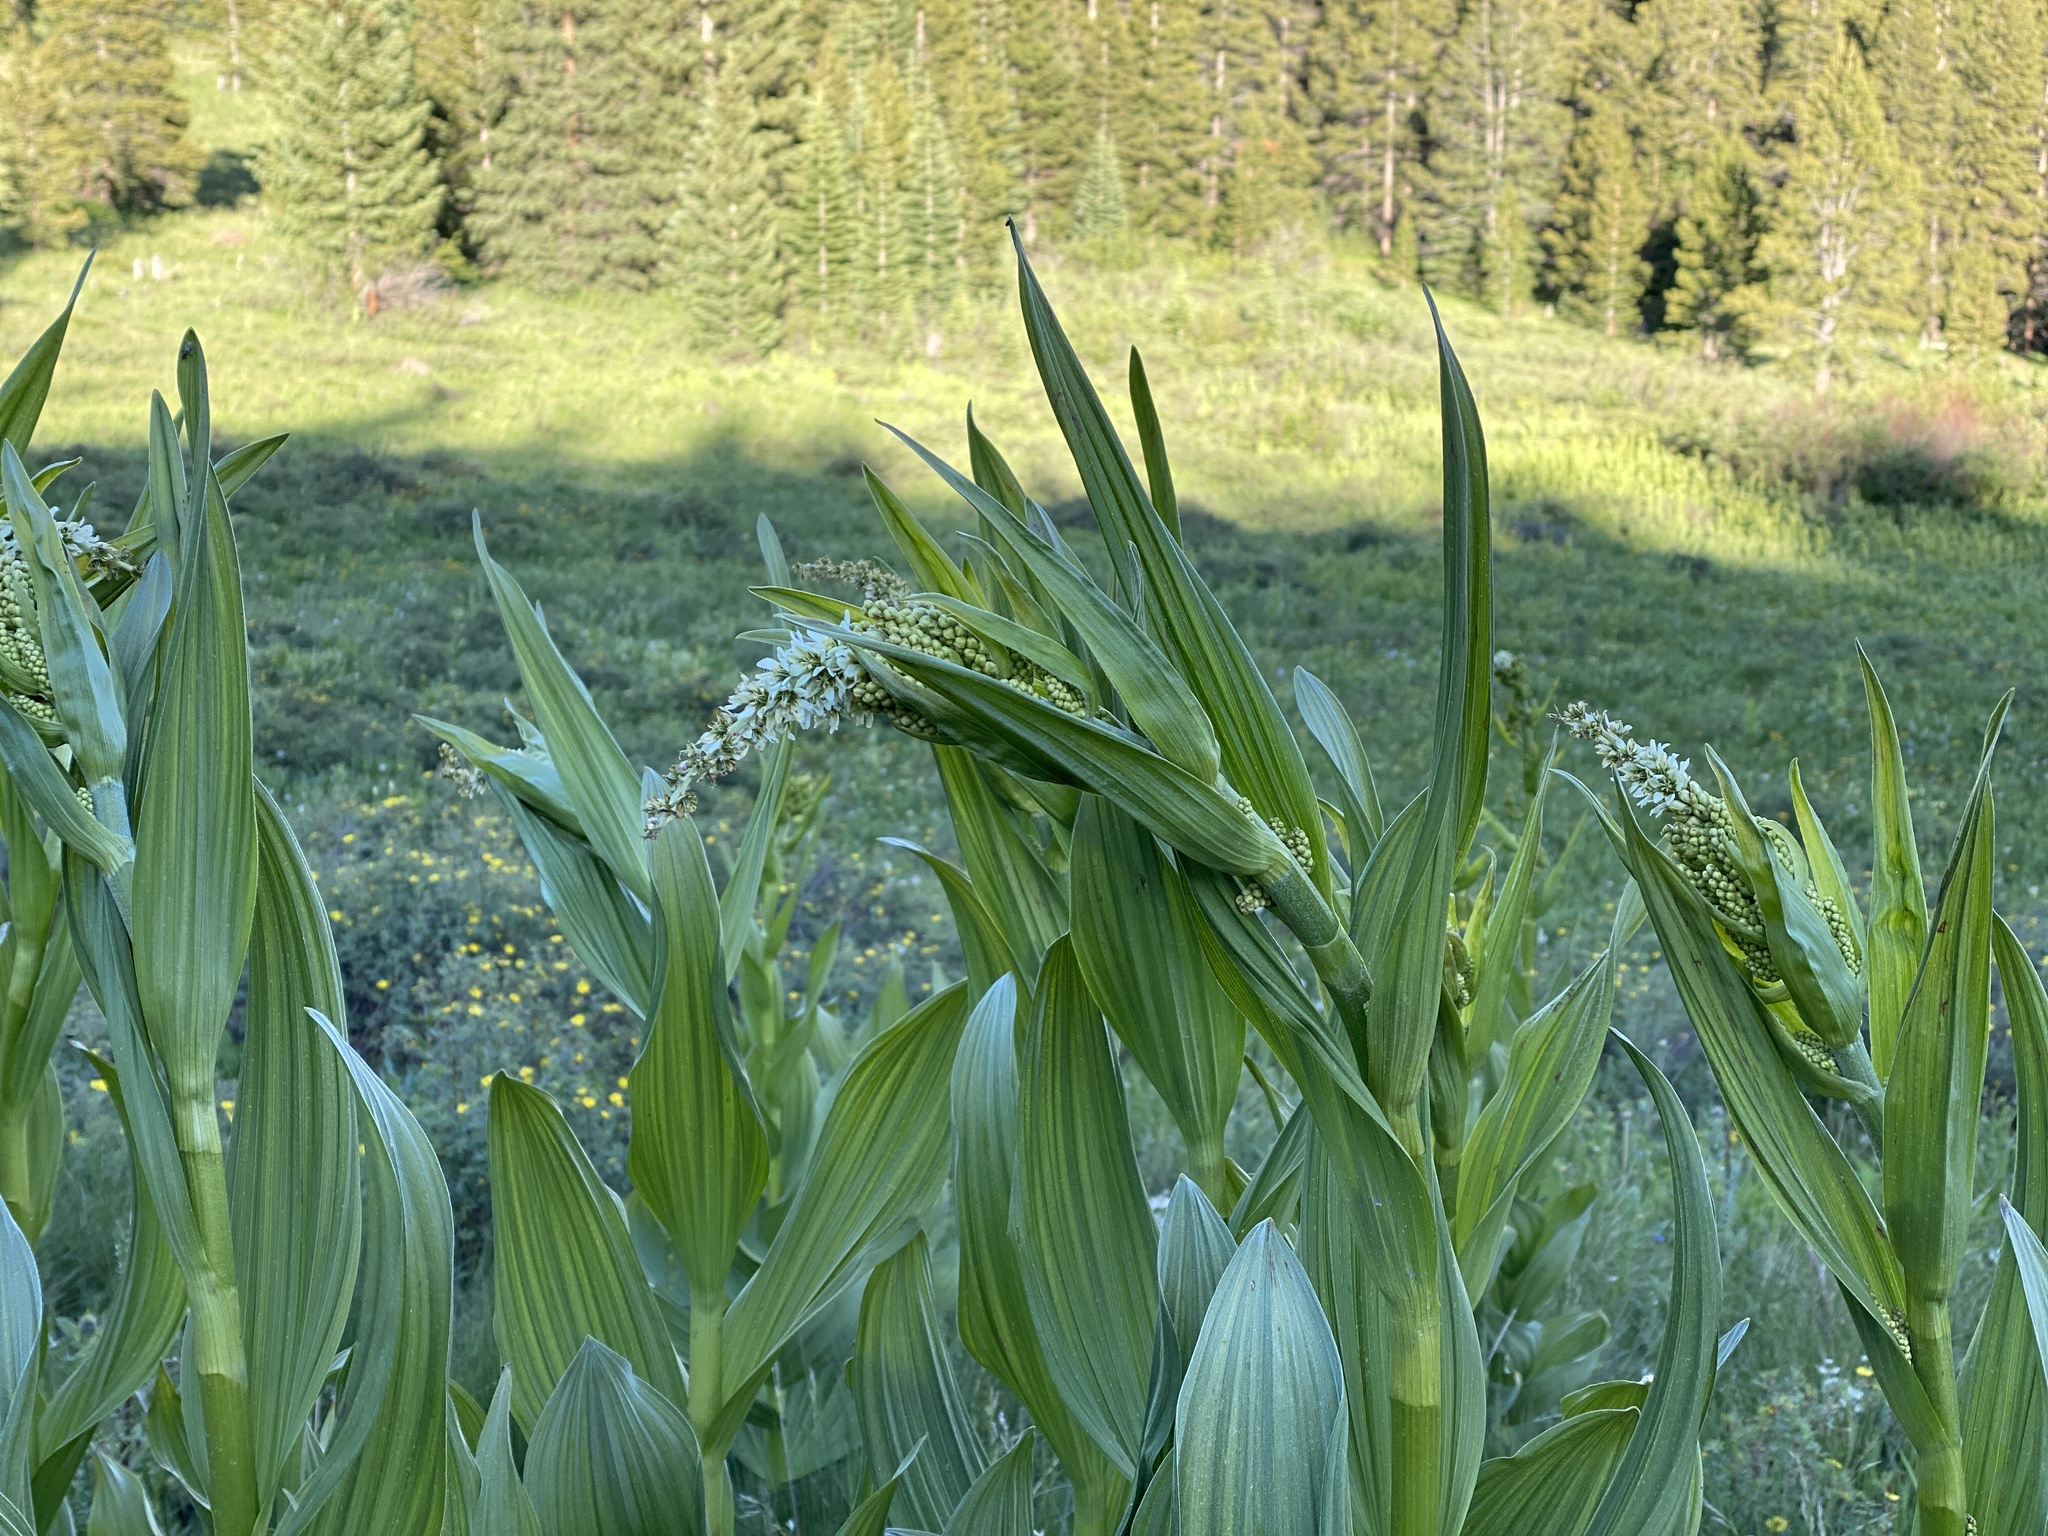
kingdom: Plantae
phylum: Tracheophyta
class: Liliopsida
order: Liliales
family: Melanthiaceae
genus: Veratrum
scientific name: Veratrum californicum
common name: California veratrum
